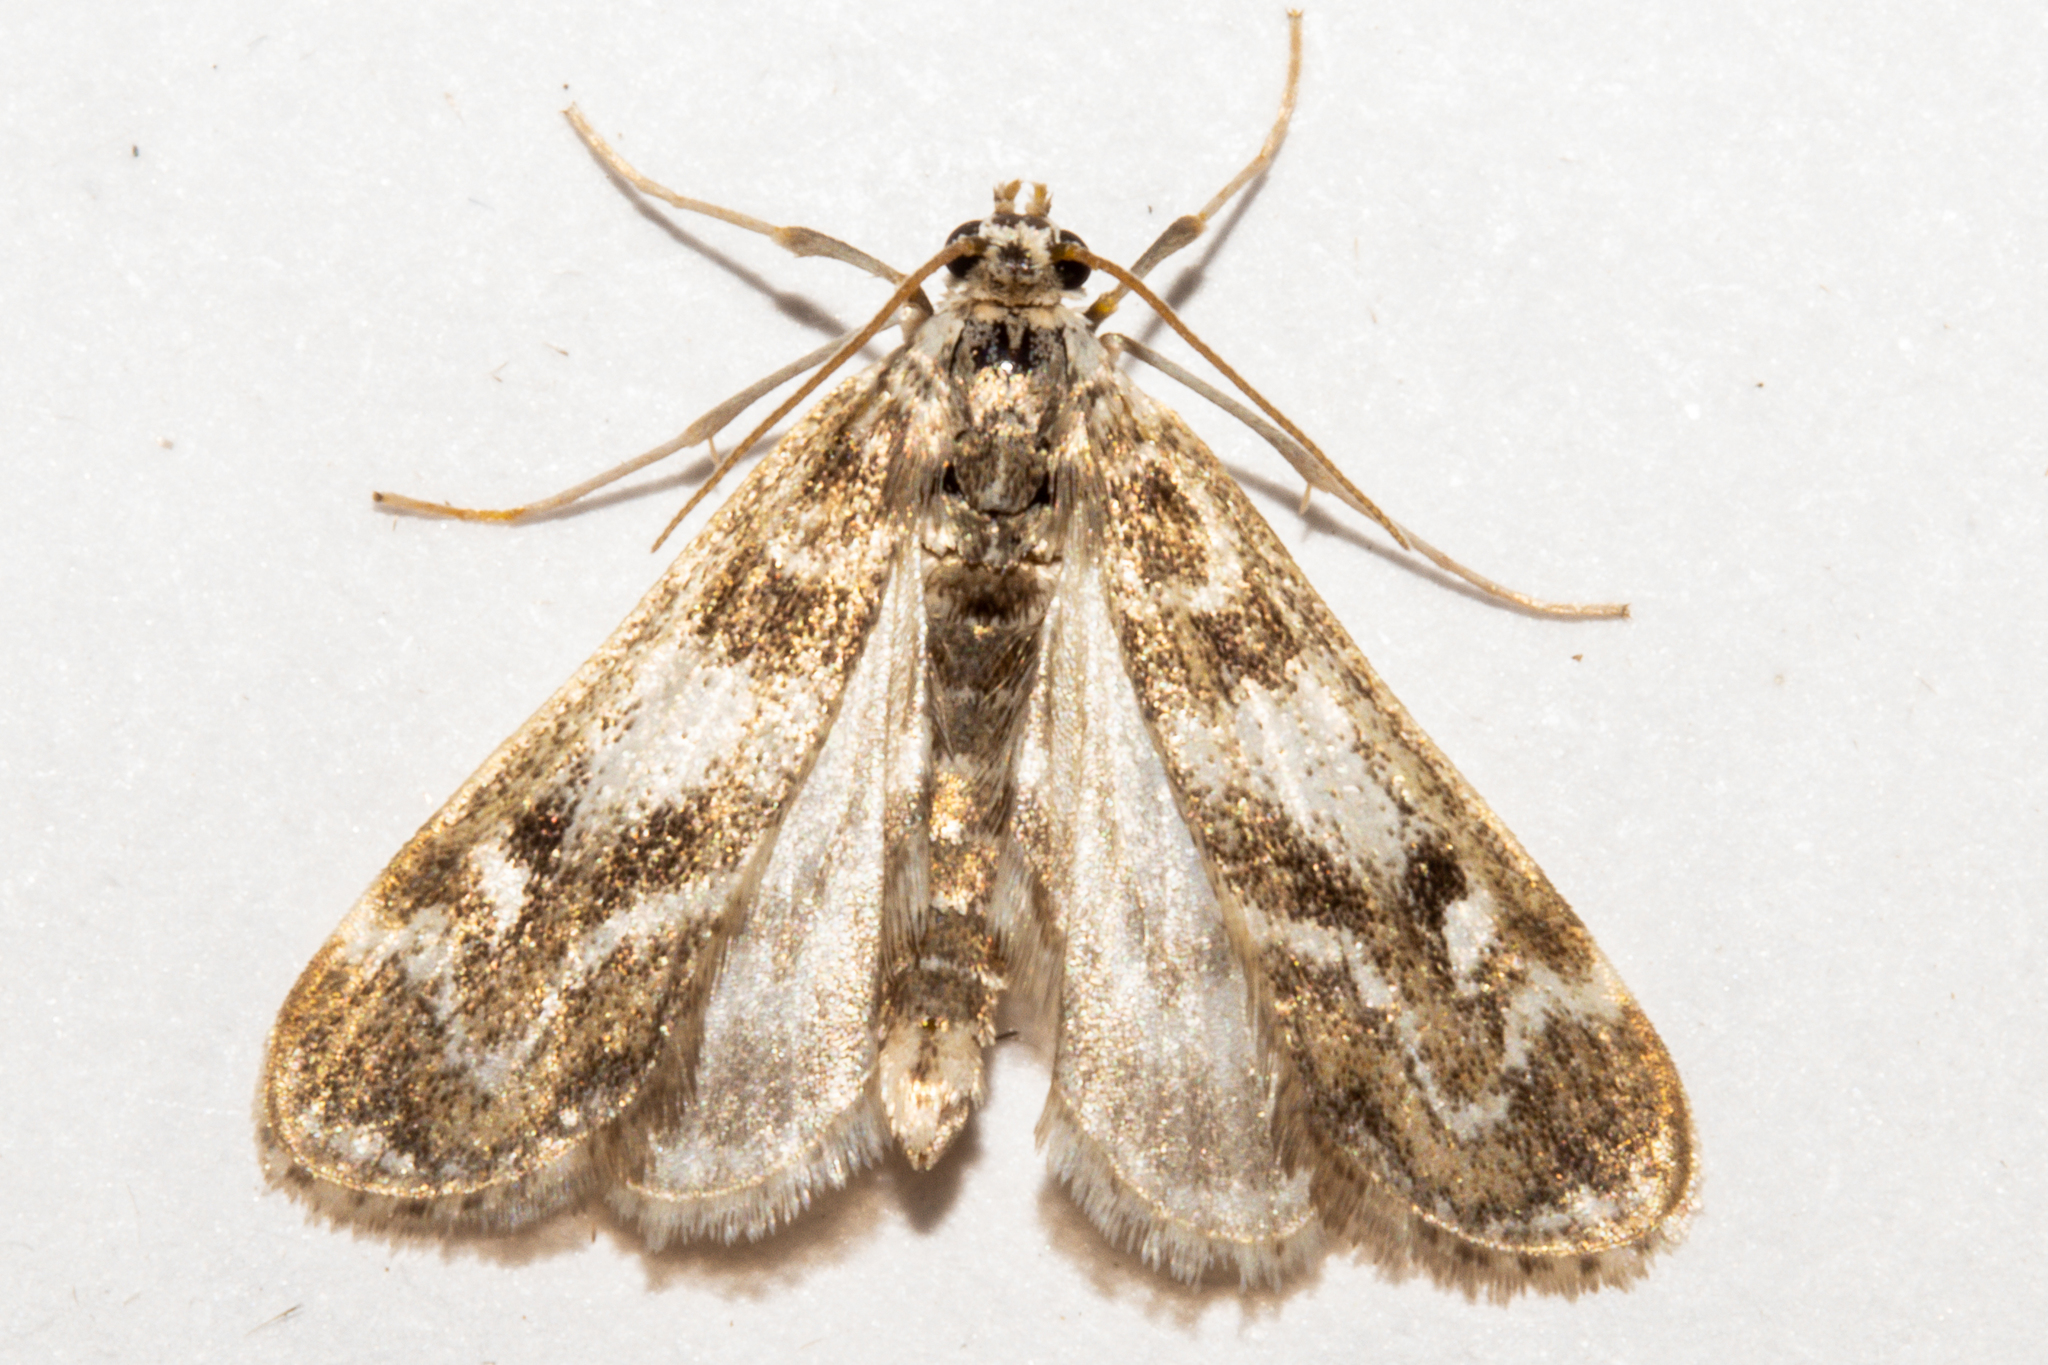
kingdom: Animalia
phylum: Arthropoda
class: Insecta
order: Lepidoptera
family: Crambidae
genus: Hygraula
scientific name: Hygraula nitens
